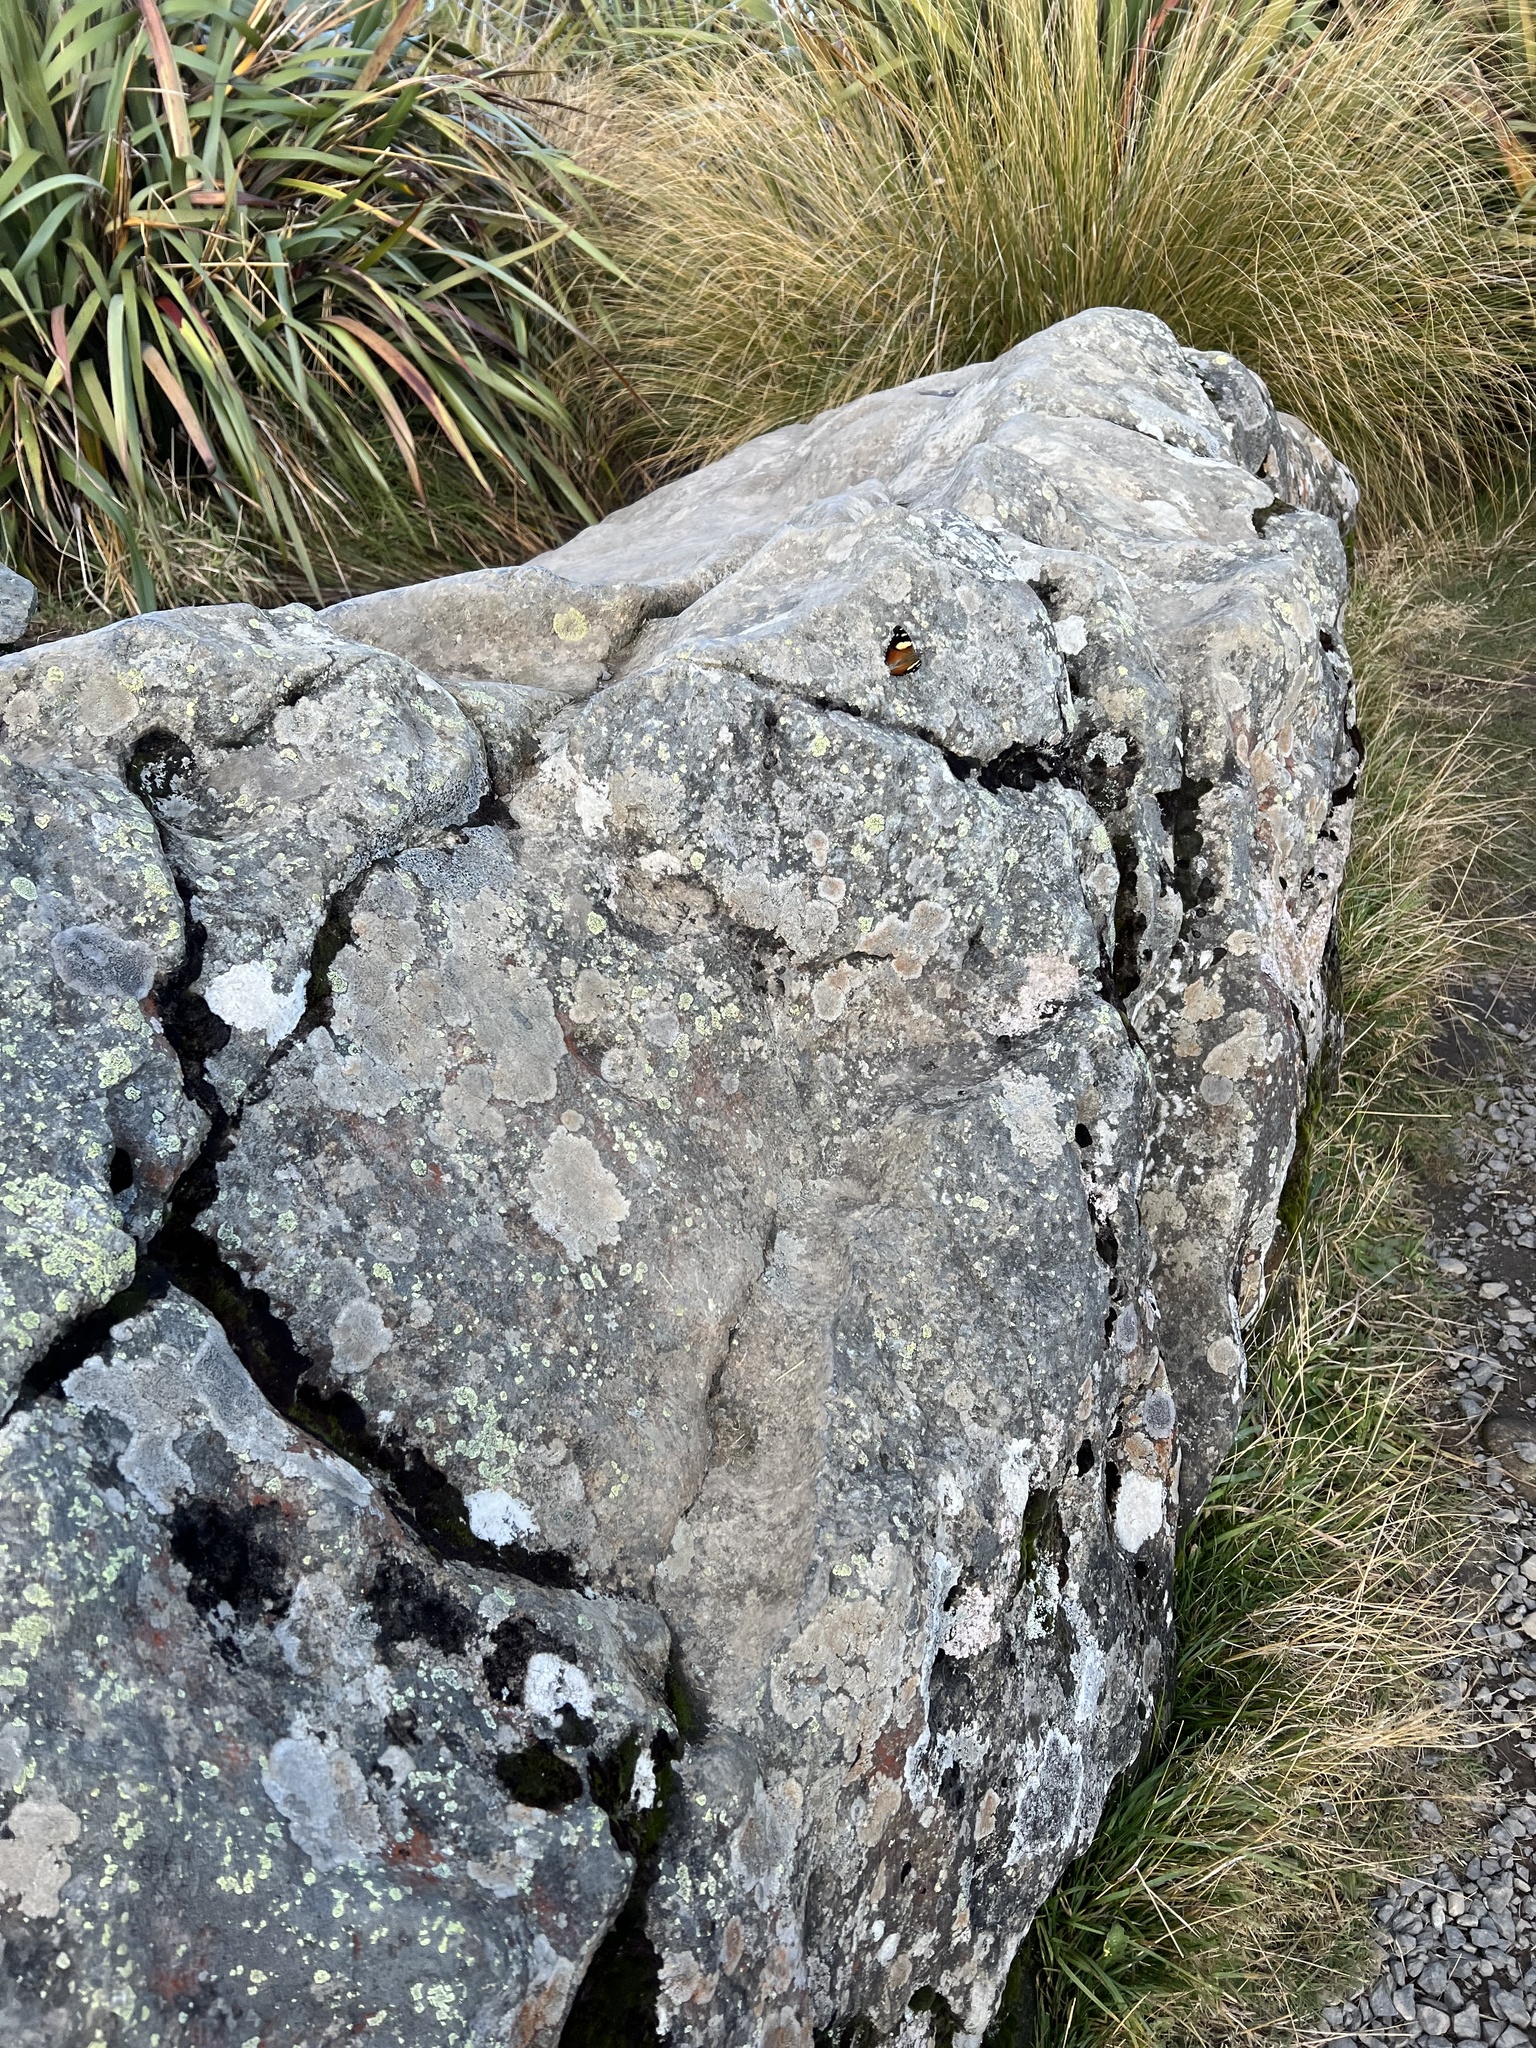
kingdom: Animalia
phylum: Arthropoda
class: Insecta
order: Lepidoptera
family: Nymphalidae
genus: Vanessa
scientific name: Vanessa itea
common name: Yellow admiral
